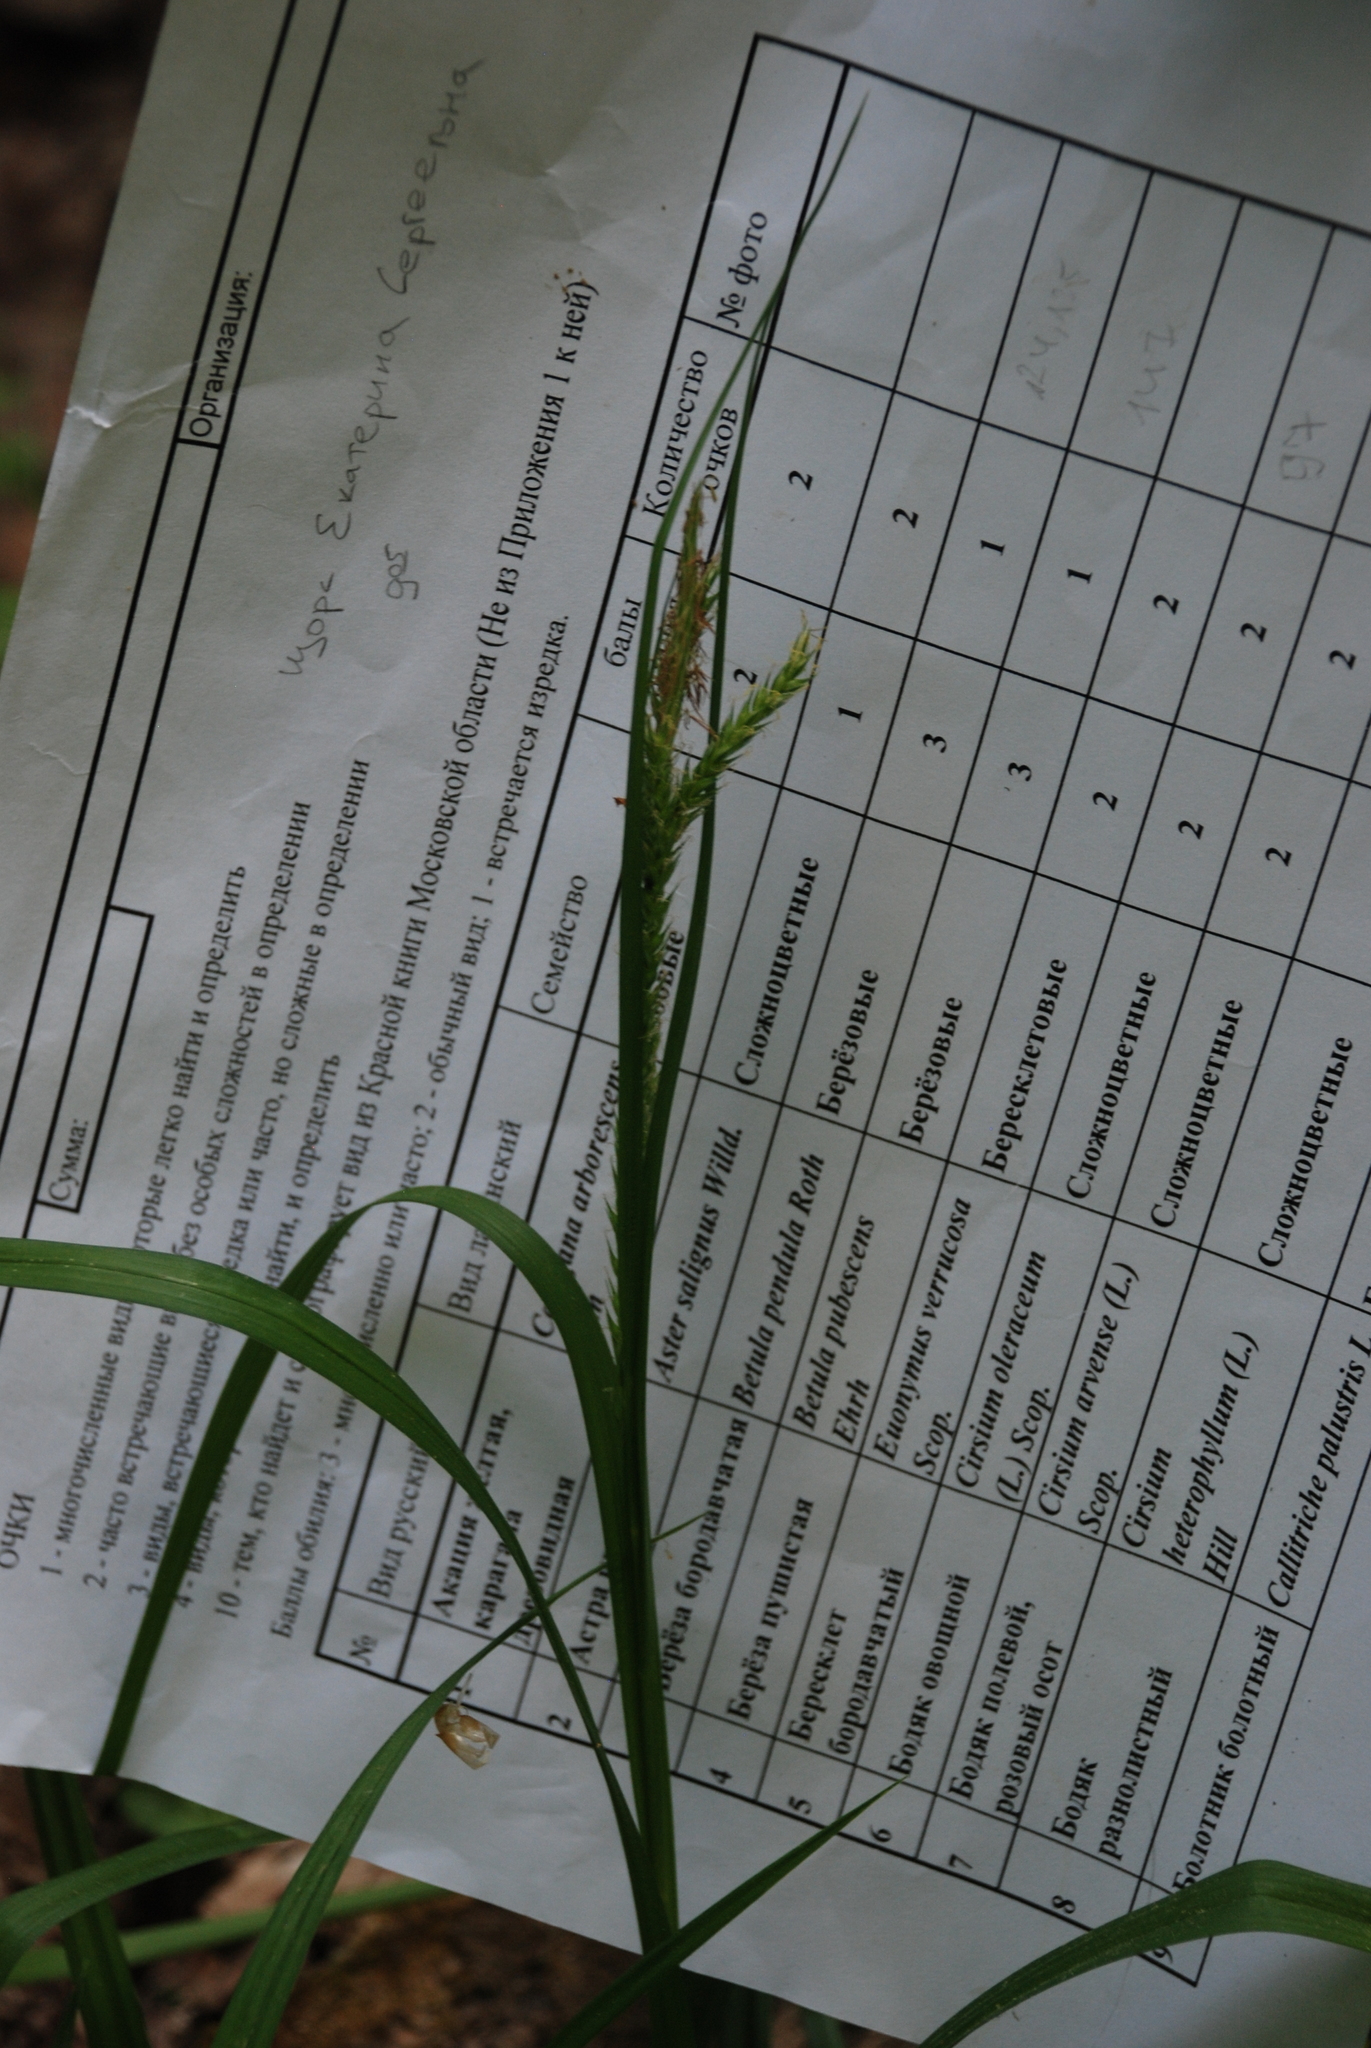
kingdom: Plantae
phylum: Tracheophyta
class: Liliopsida
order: Poales
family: Cyperaceae
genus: Carex
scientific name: Carex sylvatica
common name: Wood-sedge
